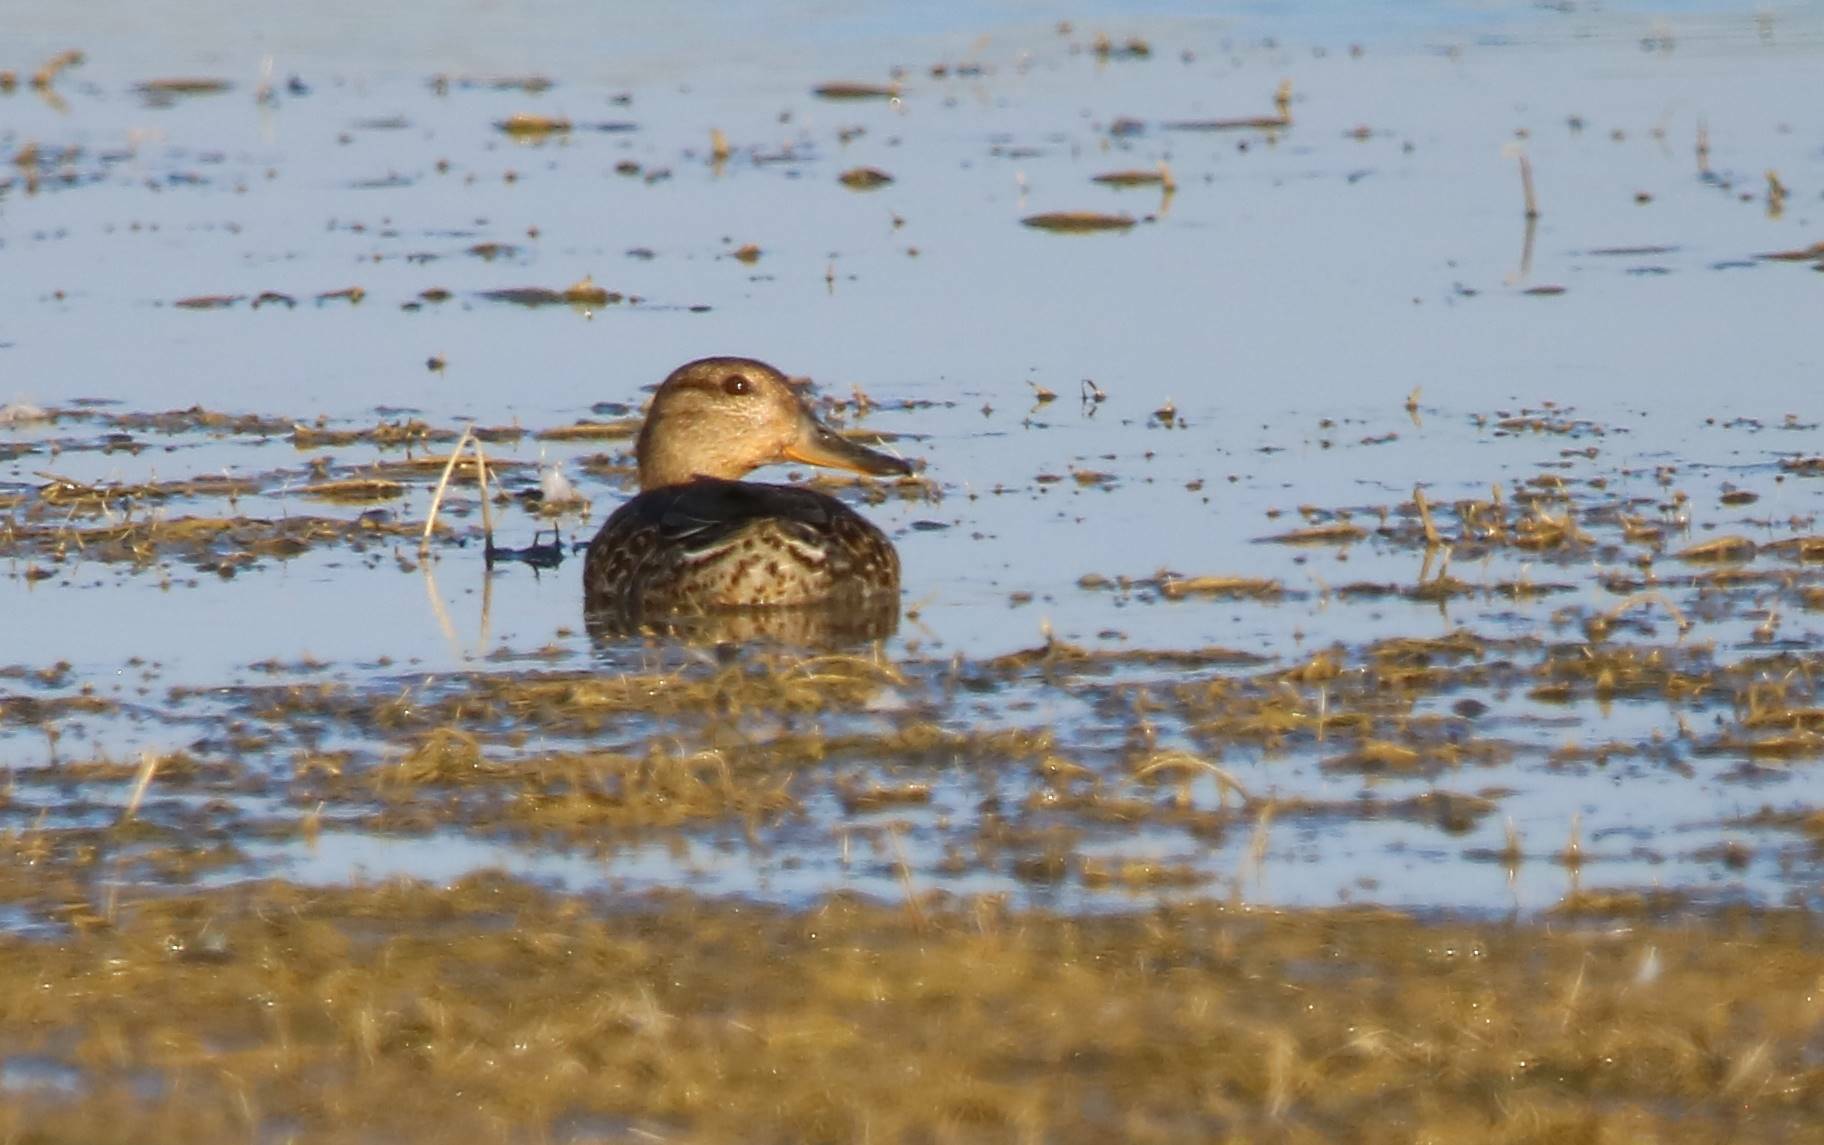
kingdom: Animalia
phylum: Chordata
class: Aves
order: Anseriformes
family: Anatidae
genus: Anas
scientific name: Anas crecca
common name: Eurasian teal
